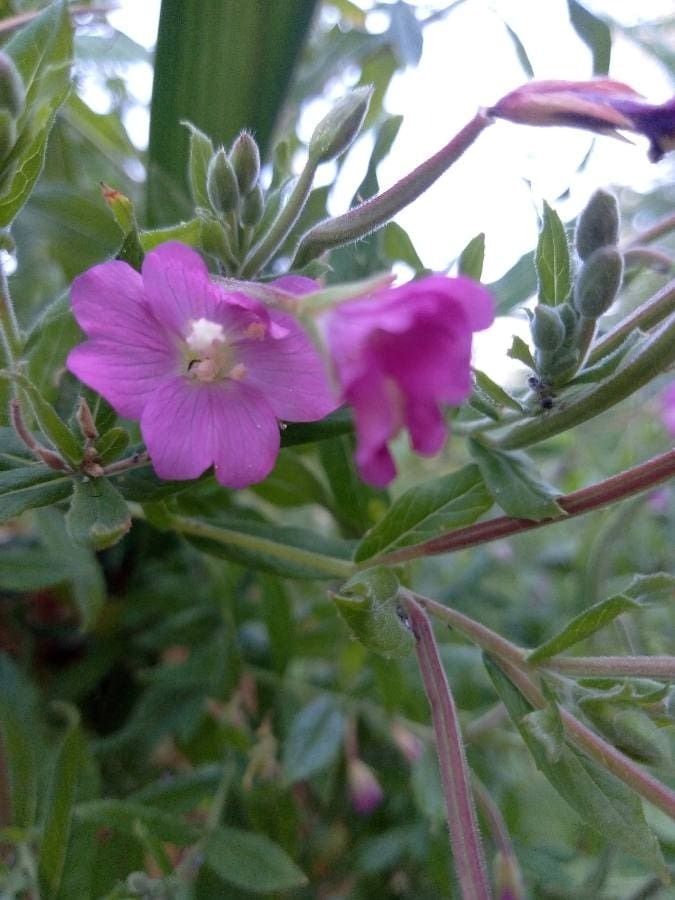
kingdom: Plantae
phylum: Tracheophyta
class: Magnoliopsida
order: Myrtales
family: Onagraceae
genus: Epilobium
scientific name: Epilobium hirsutum
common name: Great willowherb
